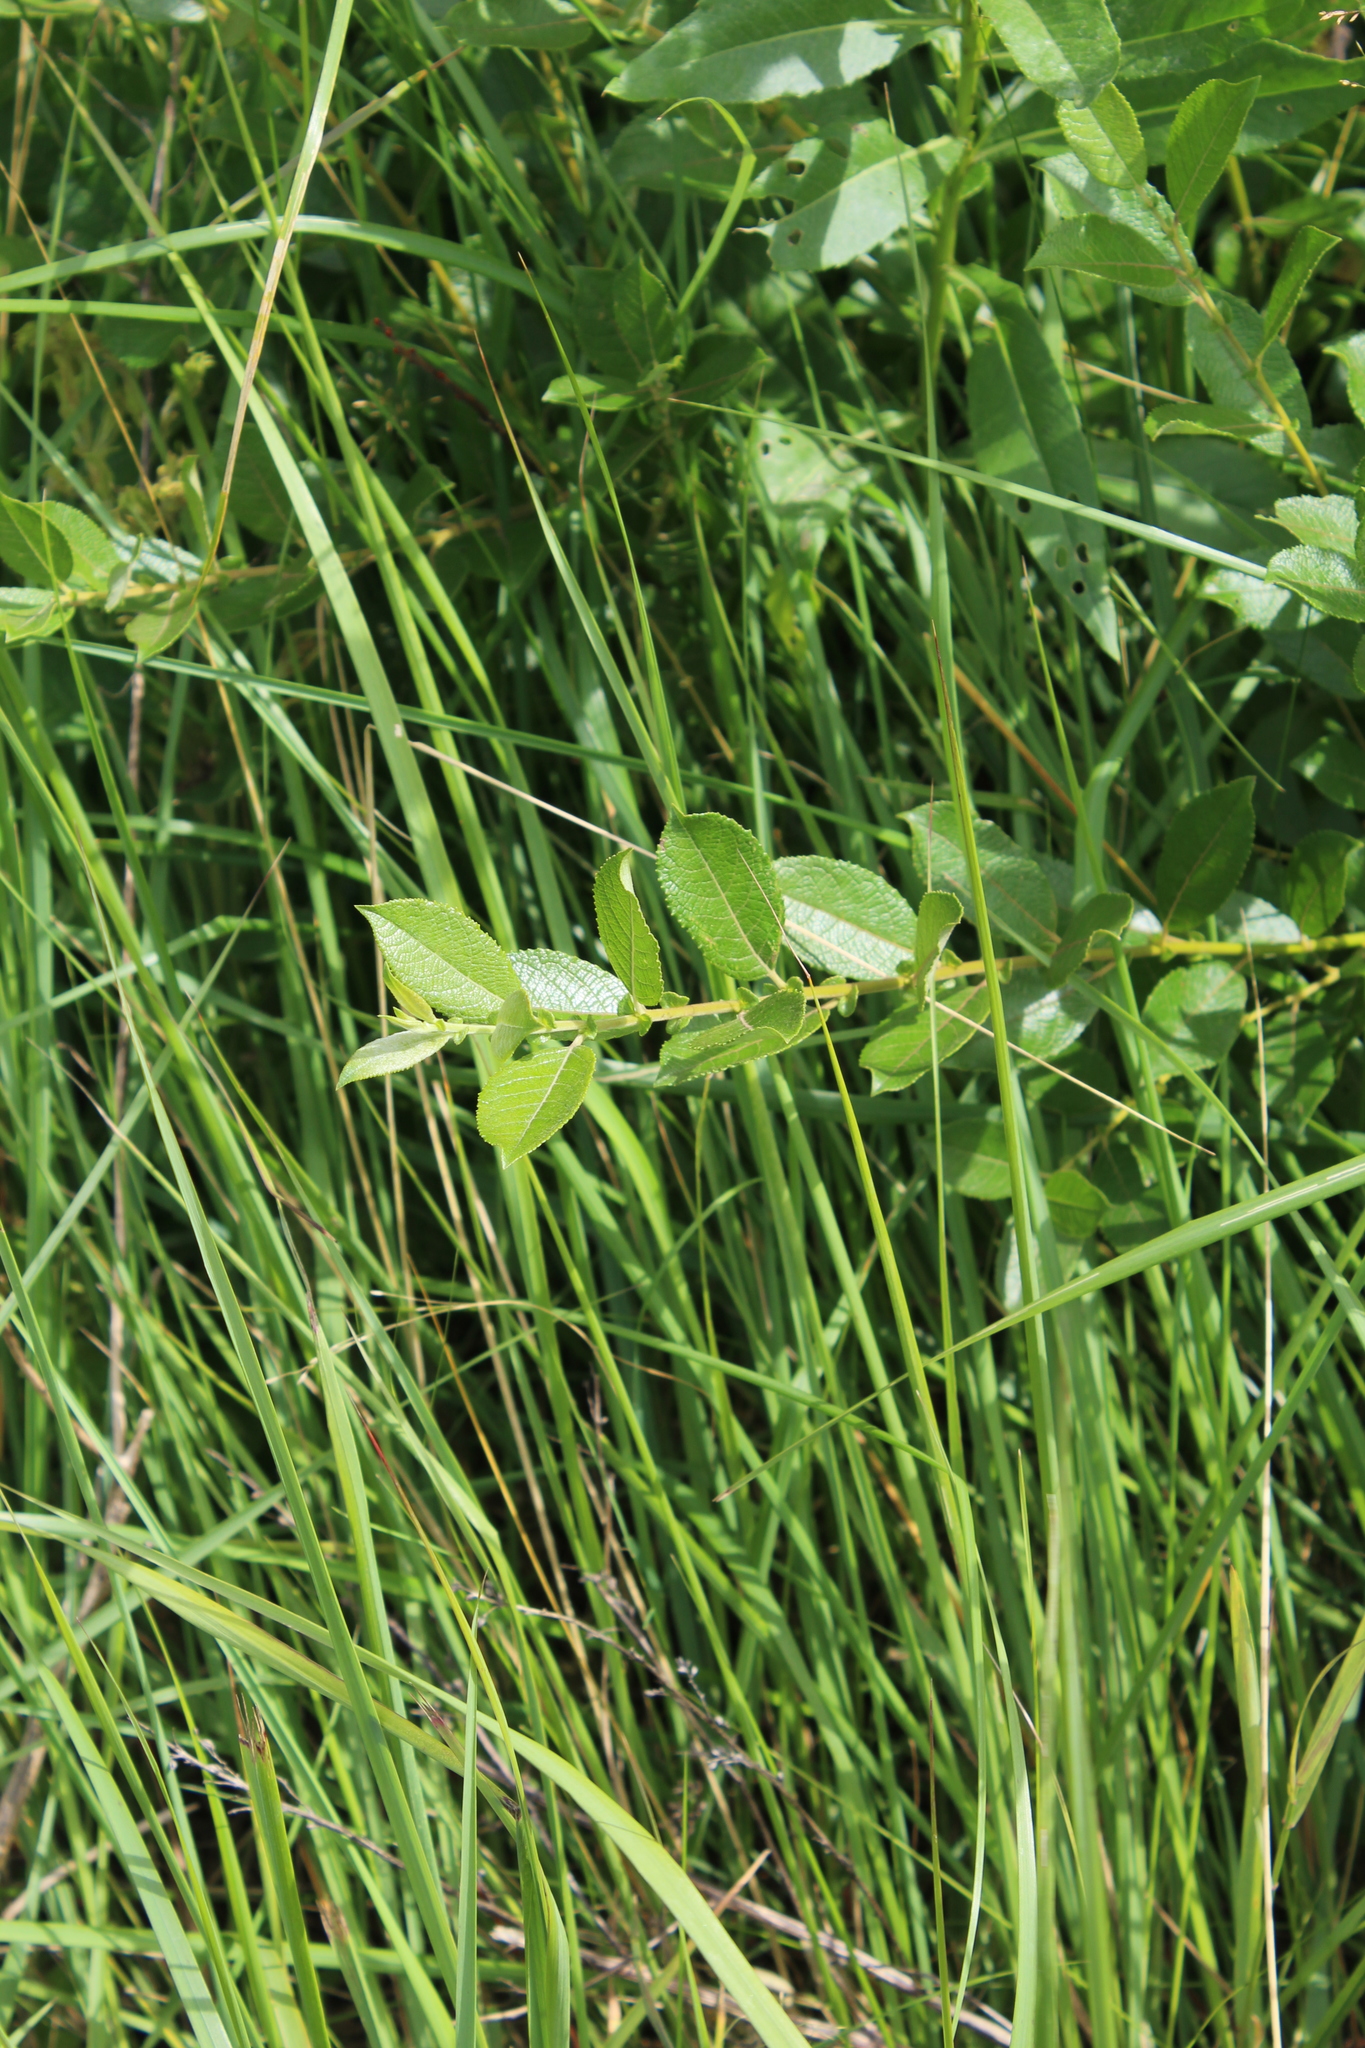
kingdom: Plantae
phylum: Tracheophyta
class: Magnoliopsida
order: Malpighiales
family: Salicaceae
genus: Salix
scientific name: Salix myrsinifolia
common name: Dark-leaved willow
